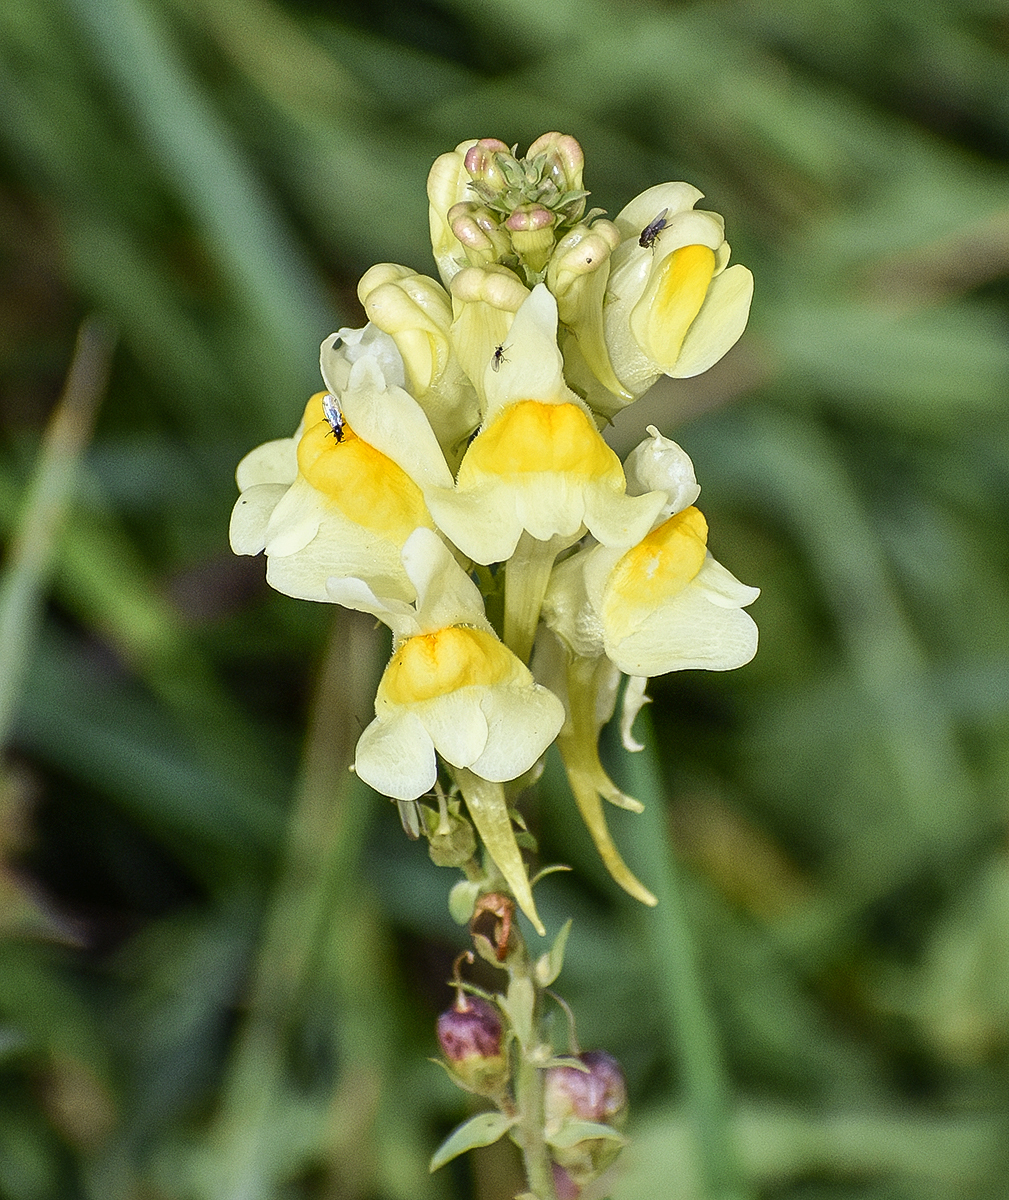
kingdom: Plantae
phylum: Tracheophyta
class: Magnoliopsida
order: Lamiales
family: Plantaginaceae
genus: Linaria
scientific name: Linaria vulgaris
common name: Butter and eggs
